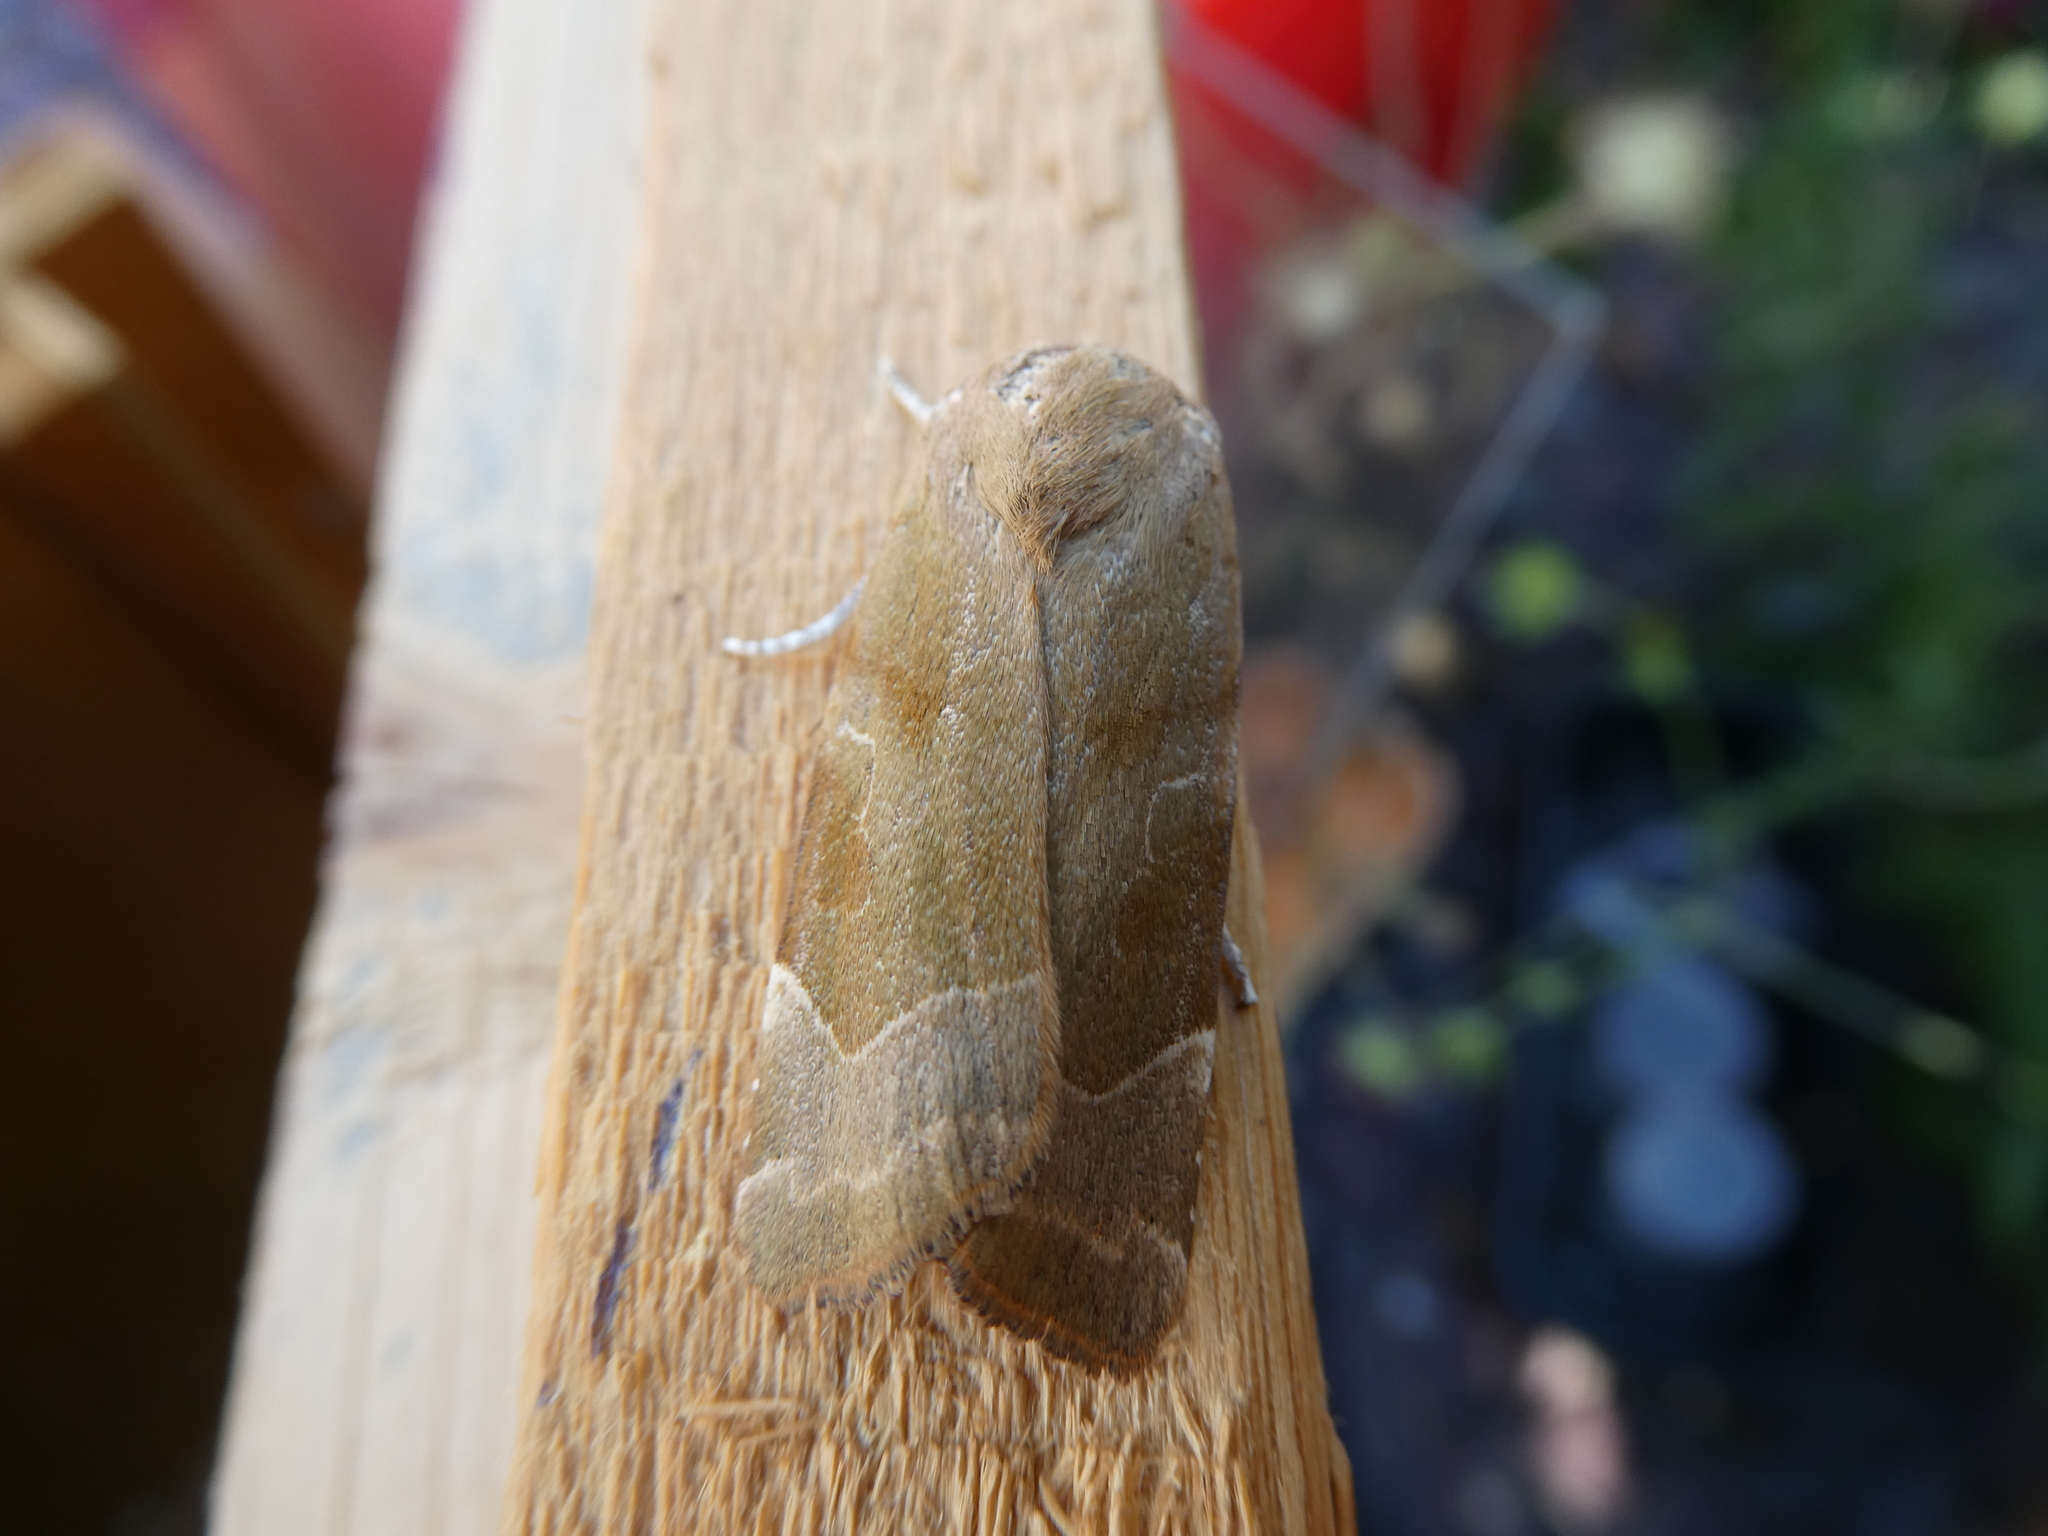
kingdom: Animalia
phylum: Arthropoda
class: Insecta
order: Lepidoptera
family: Noctuidae
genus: Noctua
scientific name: Noctua fimbriata
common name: Broad-bordered yellow underwing
